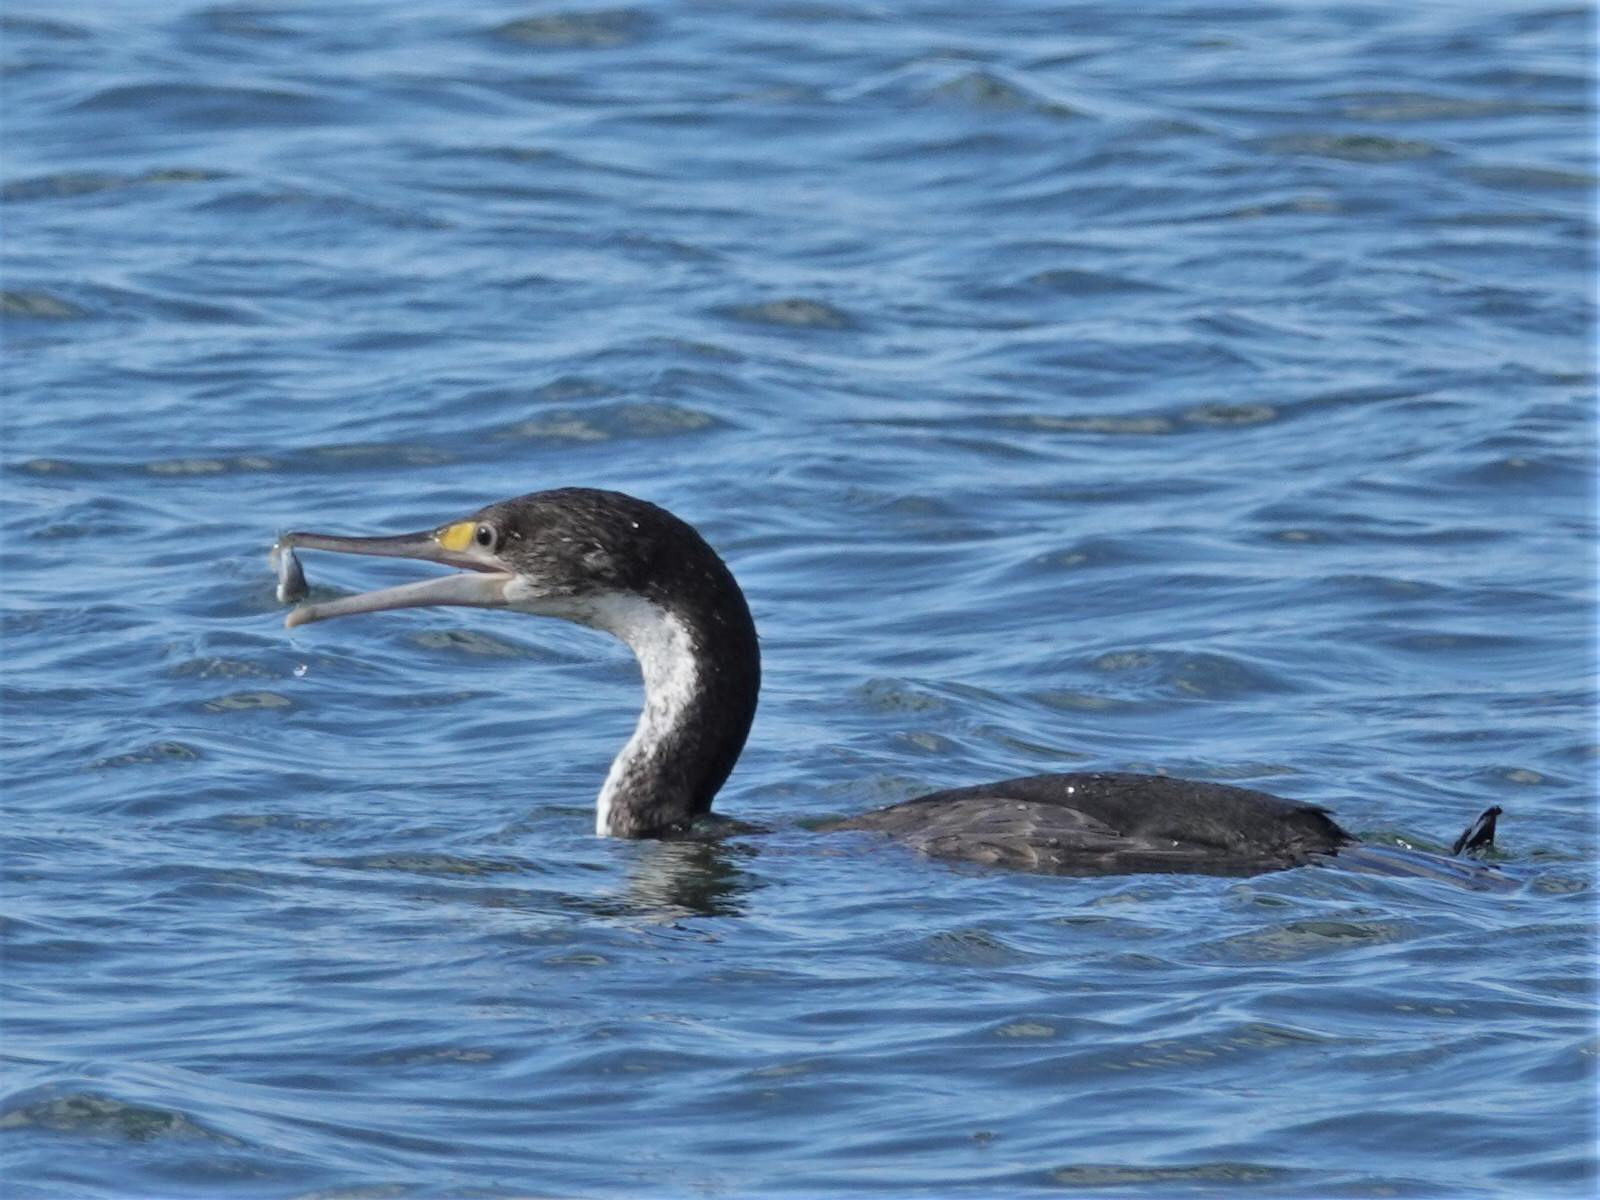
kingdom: Animalia
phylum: Chordata
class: Aves
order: Suliformes
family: Phalacrocoracidae
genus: Phalacrocorax
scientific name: Phalacrocorax varius
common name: Pied cormorant
